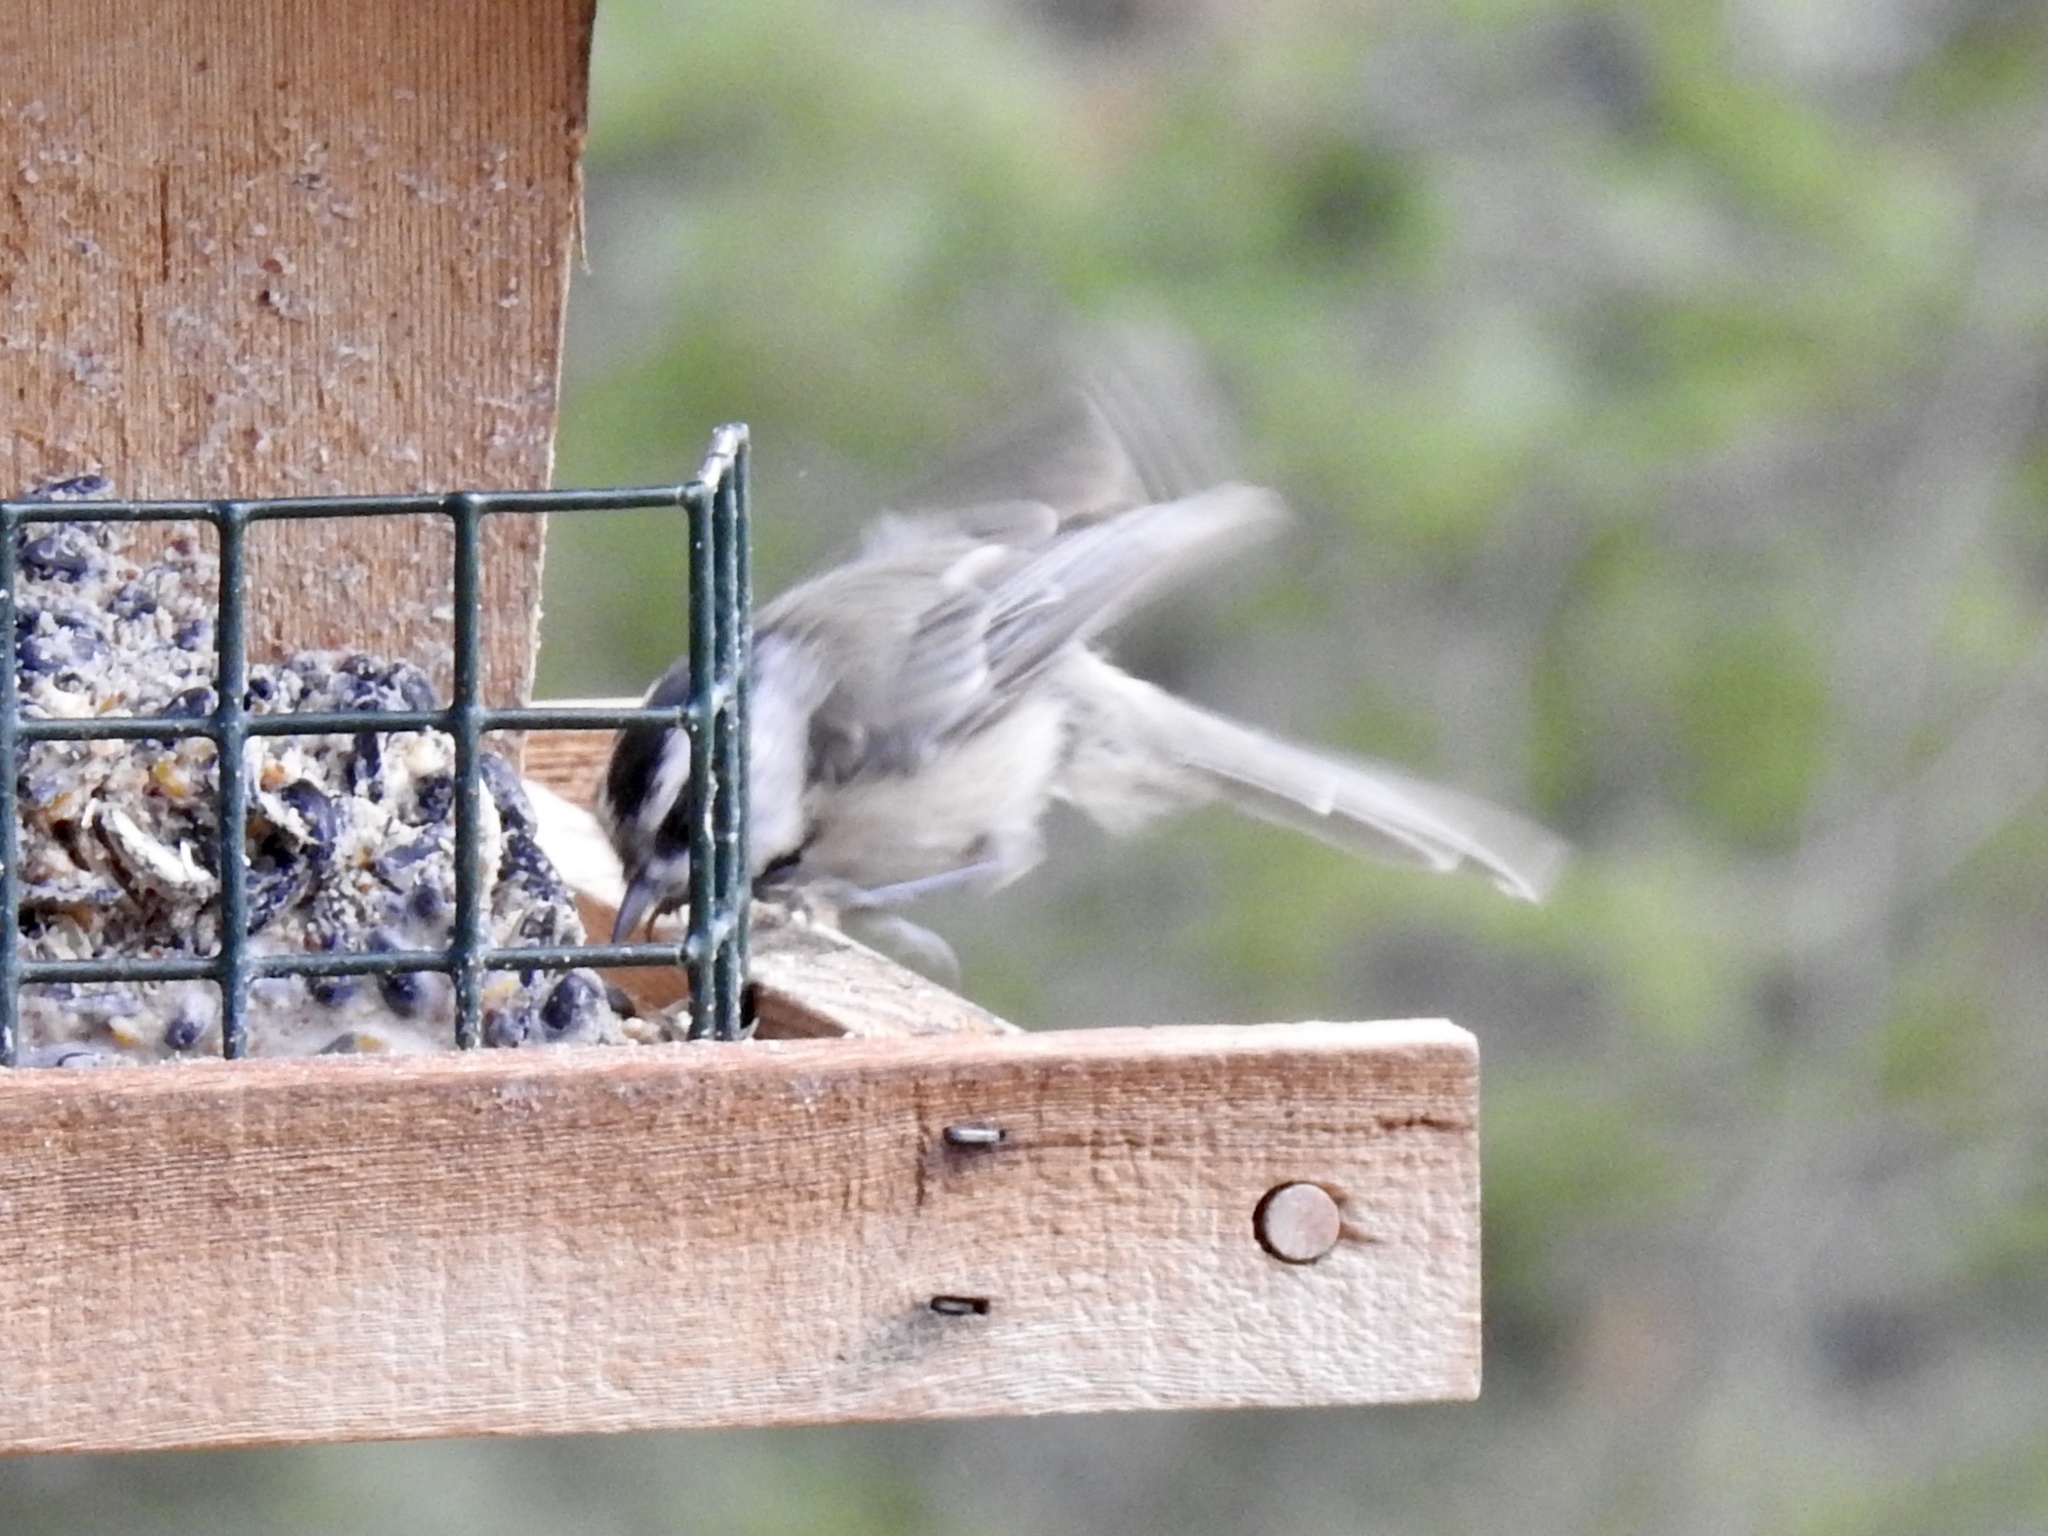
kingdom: Animalia
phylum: Chordata
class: Aves
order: Passeriformes
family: Paridae
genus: Poecile
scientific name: Poecile gambeli
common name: Mountain chickadee
